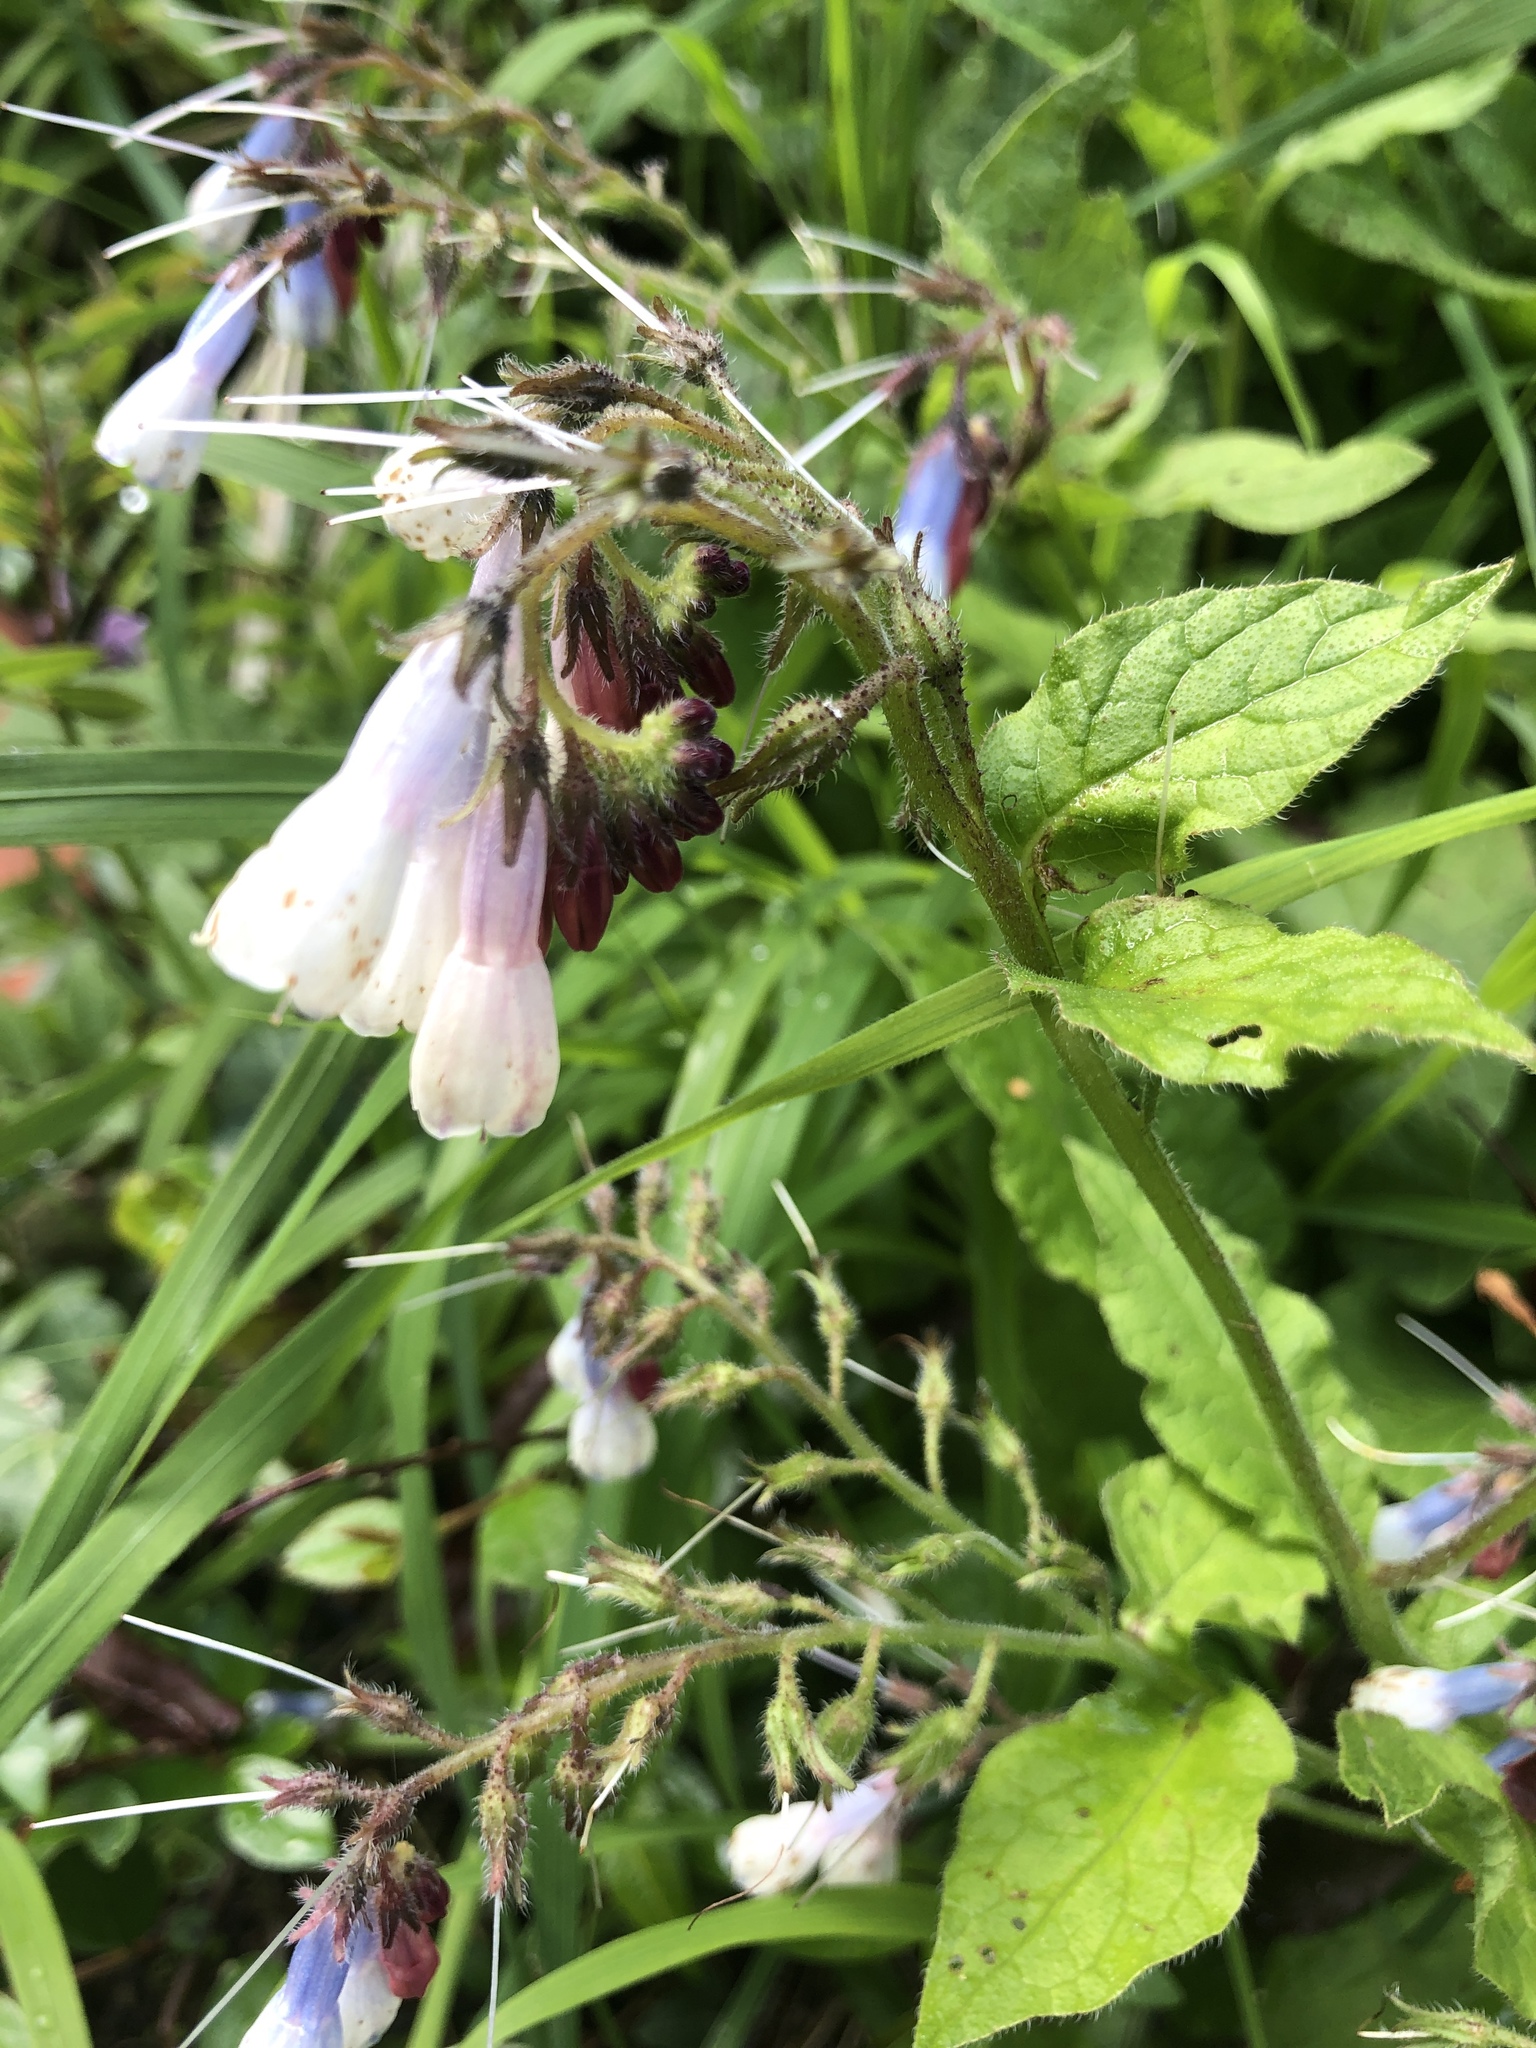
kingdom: Plantae
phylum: Tracheophyta
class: Magnoliopsida
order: Boraginales
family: Boraginaceae
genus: Symphytum
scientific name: Symphytum officinale
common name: Common comfrey
